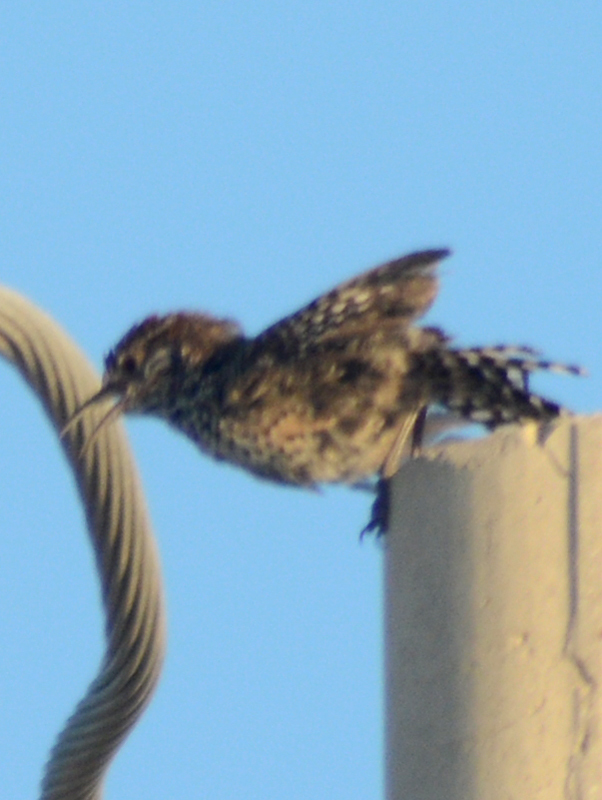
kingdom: Animalia
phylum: Chordata
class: Aves
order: Passeriformes
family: Troglodytidae
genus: Campylorhynchus
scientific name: Campylorhynchus brunneicapillus
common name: Cactus wren
